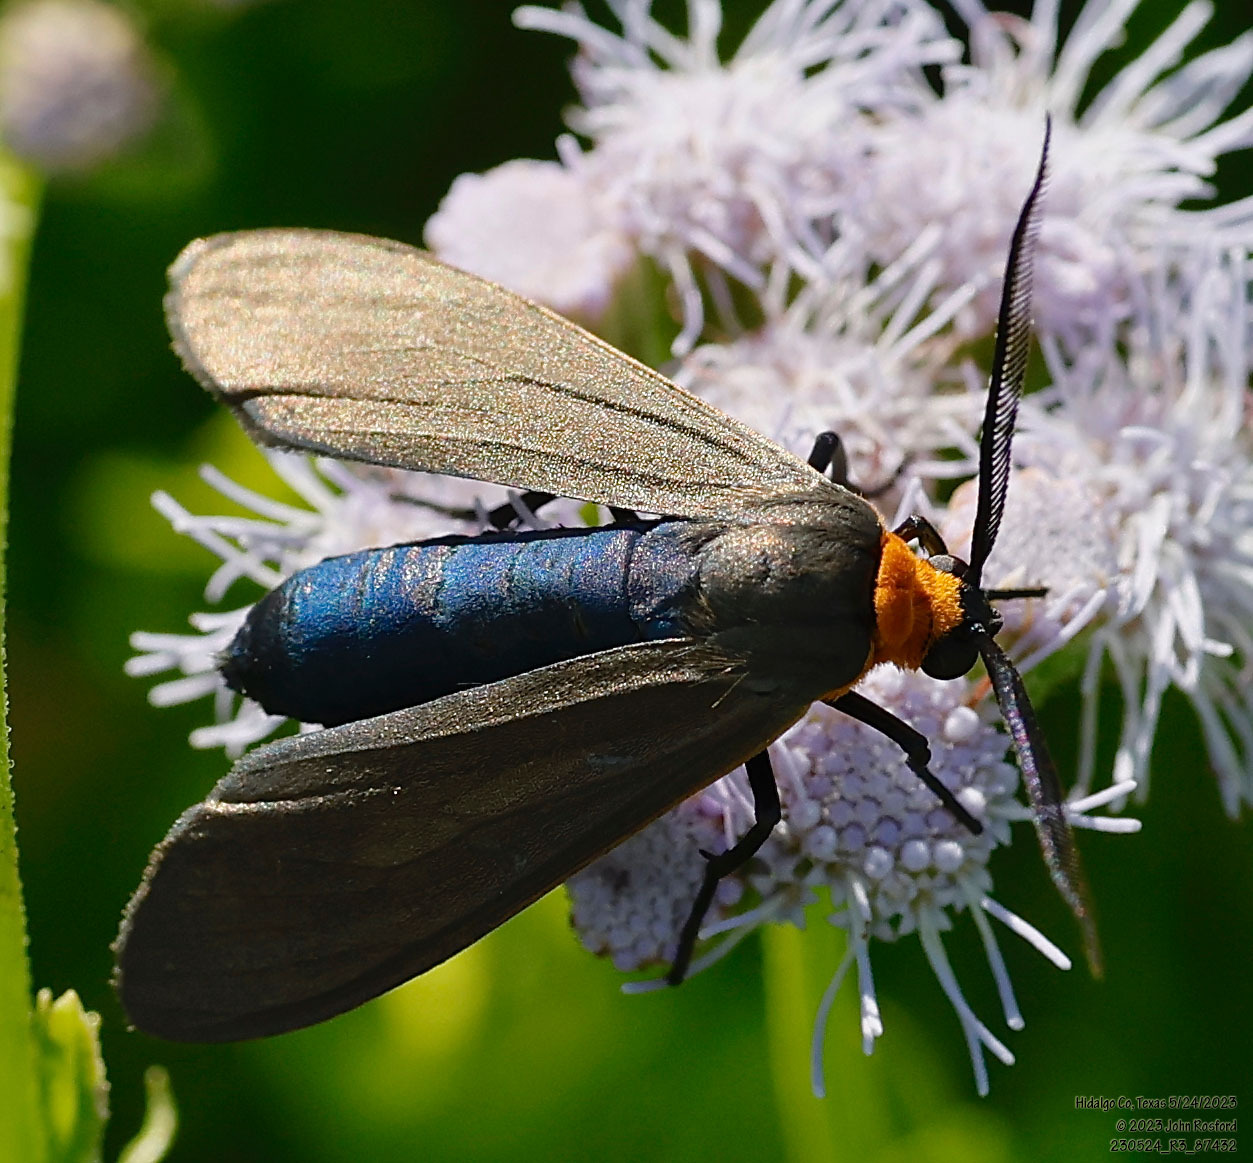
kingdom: Animalia
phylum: Arthropoda
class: Insecta
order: Lepidoptera
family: Erebidae
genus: Cisseps
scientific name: Cisseps fulvicollis
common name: Yellow-collared scape moth
